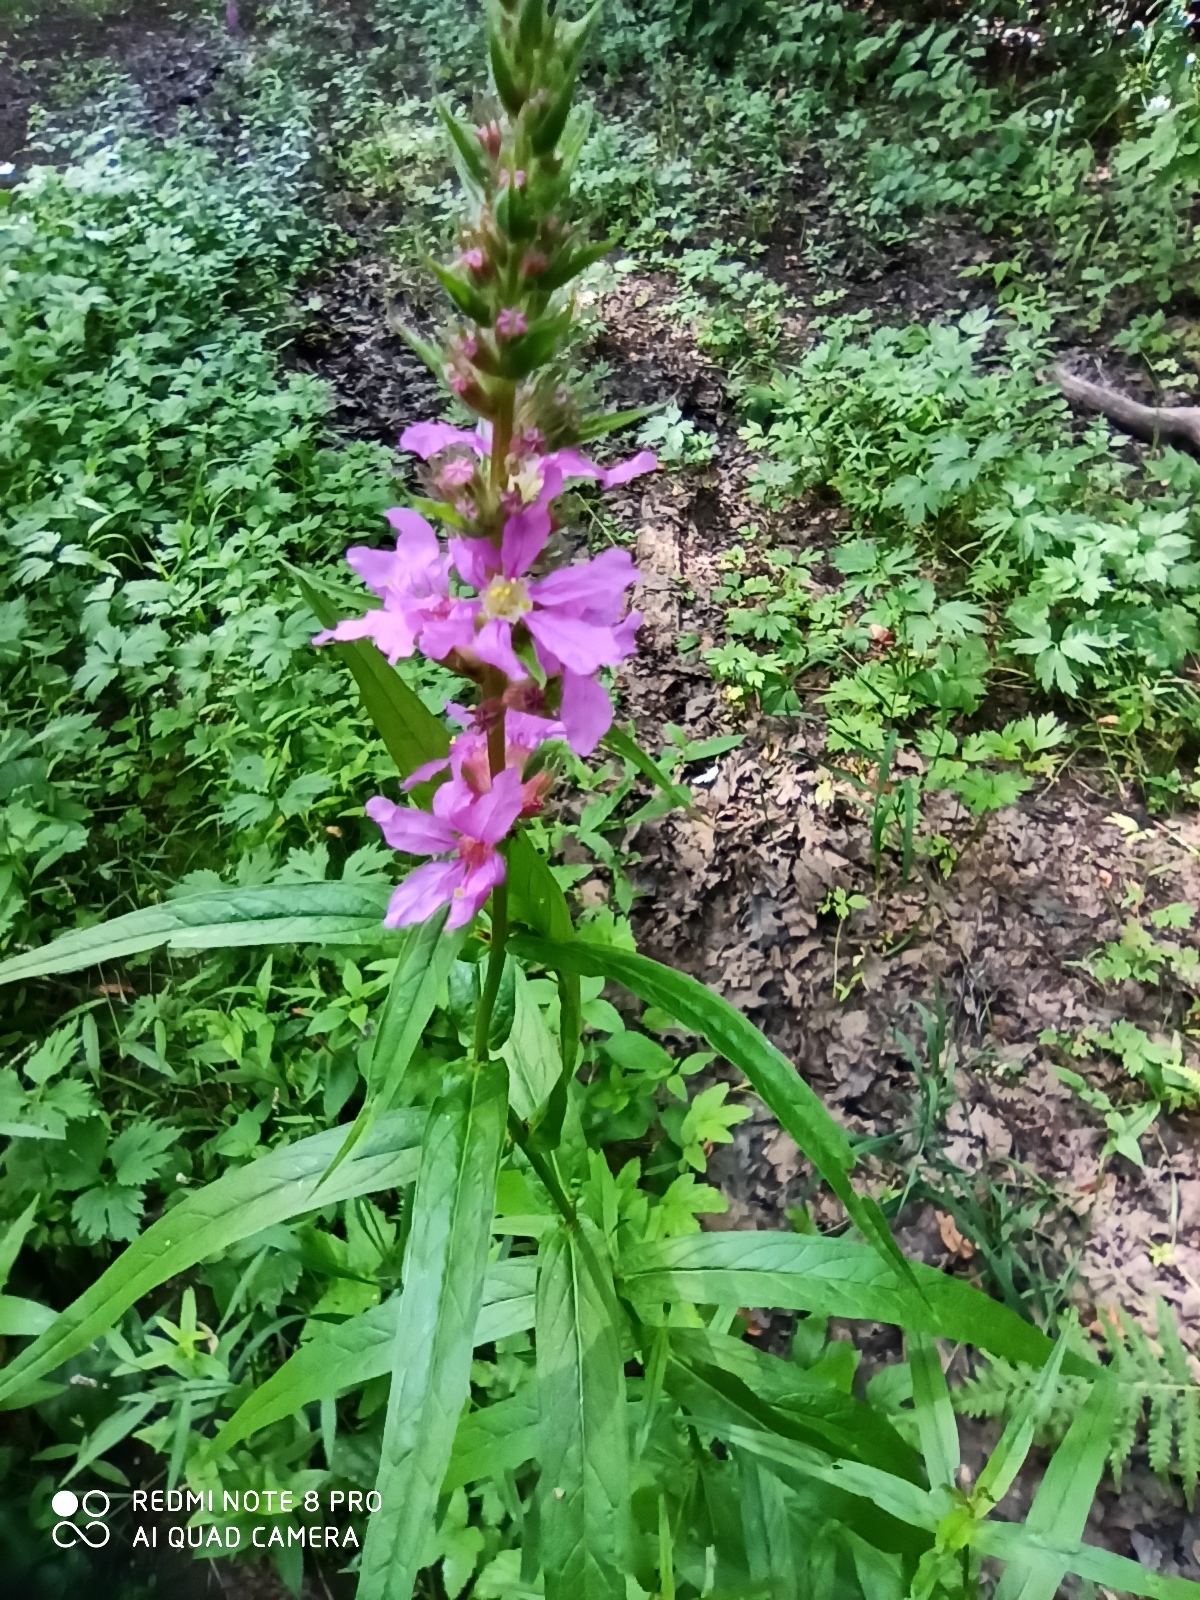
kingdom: Plantae
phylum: Tracheophyta
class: Magnoliopsida
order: Myrtales
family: Lythraceae
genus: Lythrum
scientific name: Lythrum salicaria
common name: Purple loosestrife
